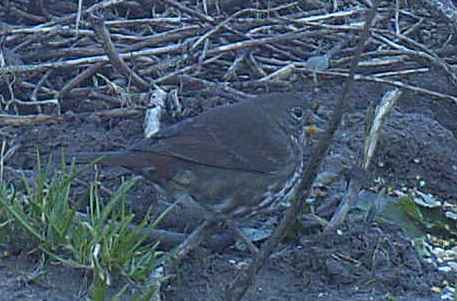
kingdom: Animalia
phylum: Chordata
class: Aves
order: Passeriformes
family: Passerellidae
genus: Passerella
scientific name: Passerella iliaca
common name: Fox sparrow
